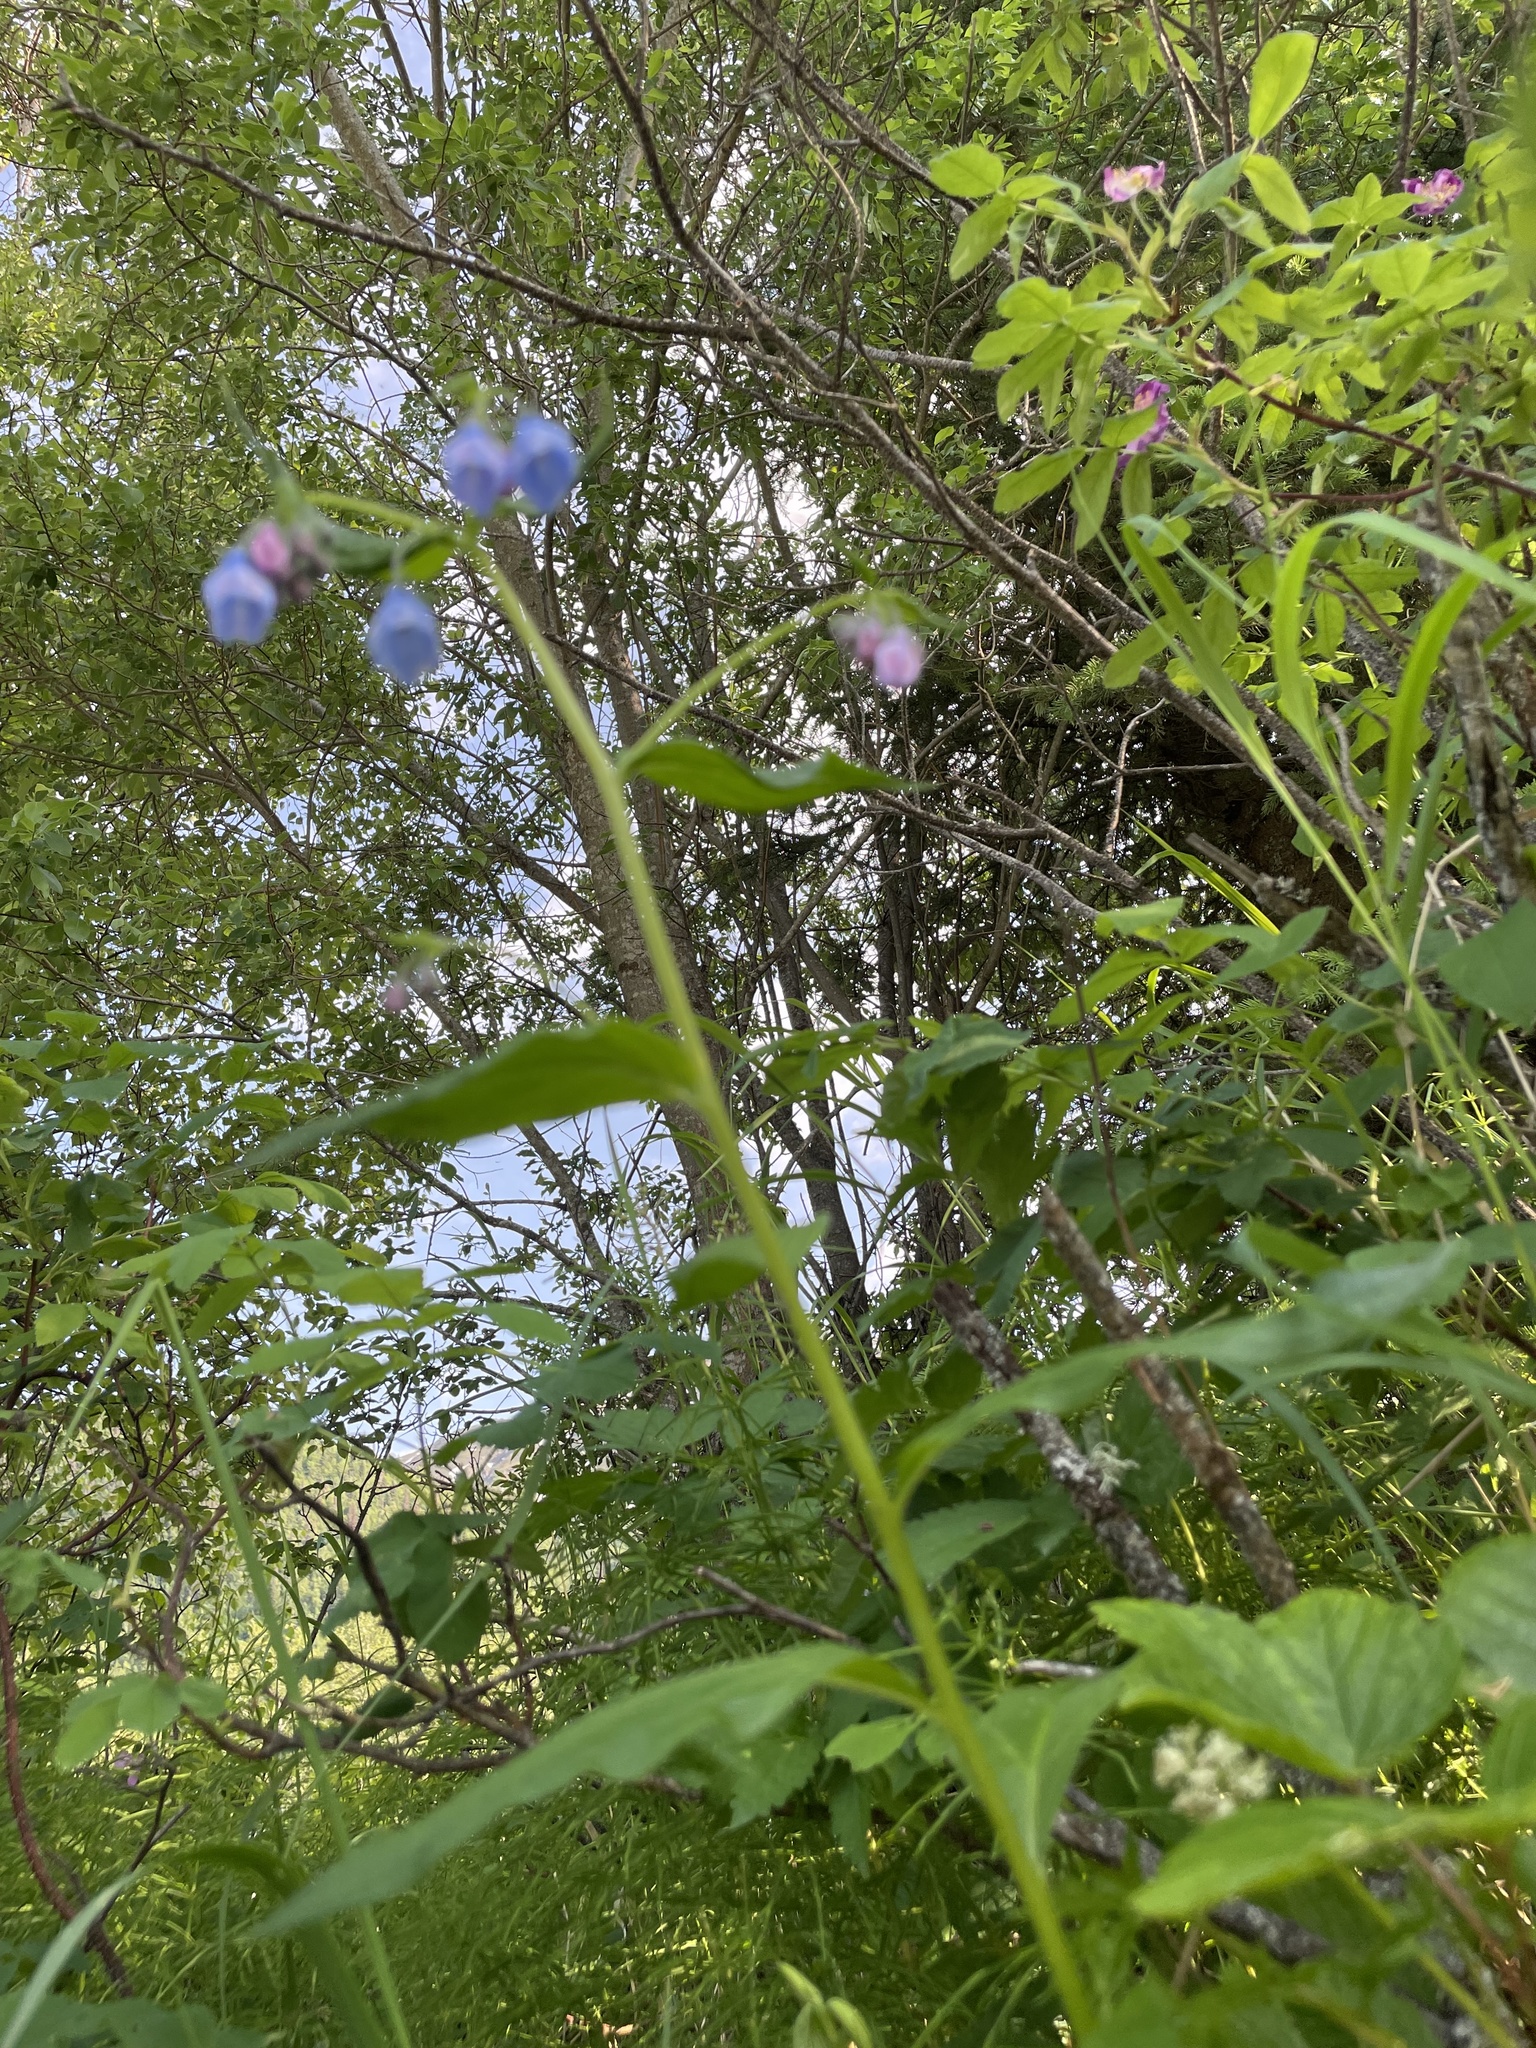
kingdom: Plantae
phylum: Tracheophyta
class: Magnoliopsida
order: Boraginales
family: Boraginaceae
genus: Mertensia
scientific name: Mertensia paniculata
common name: Panicled bluebells
